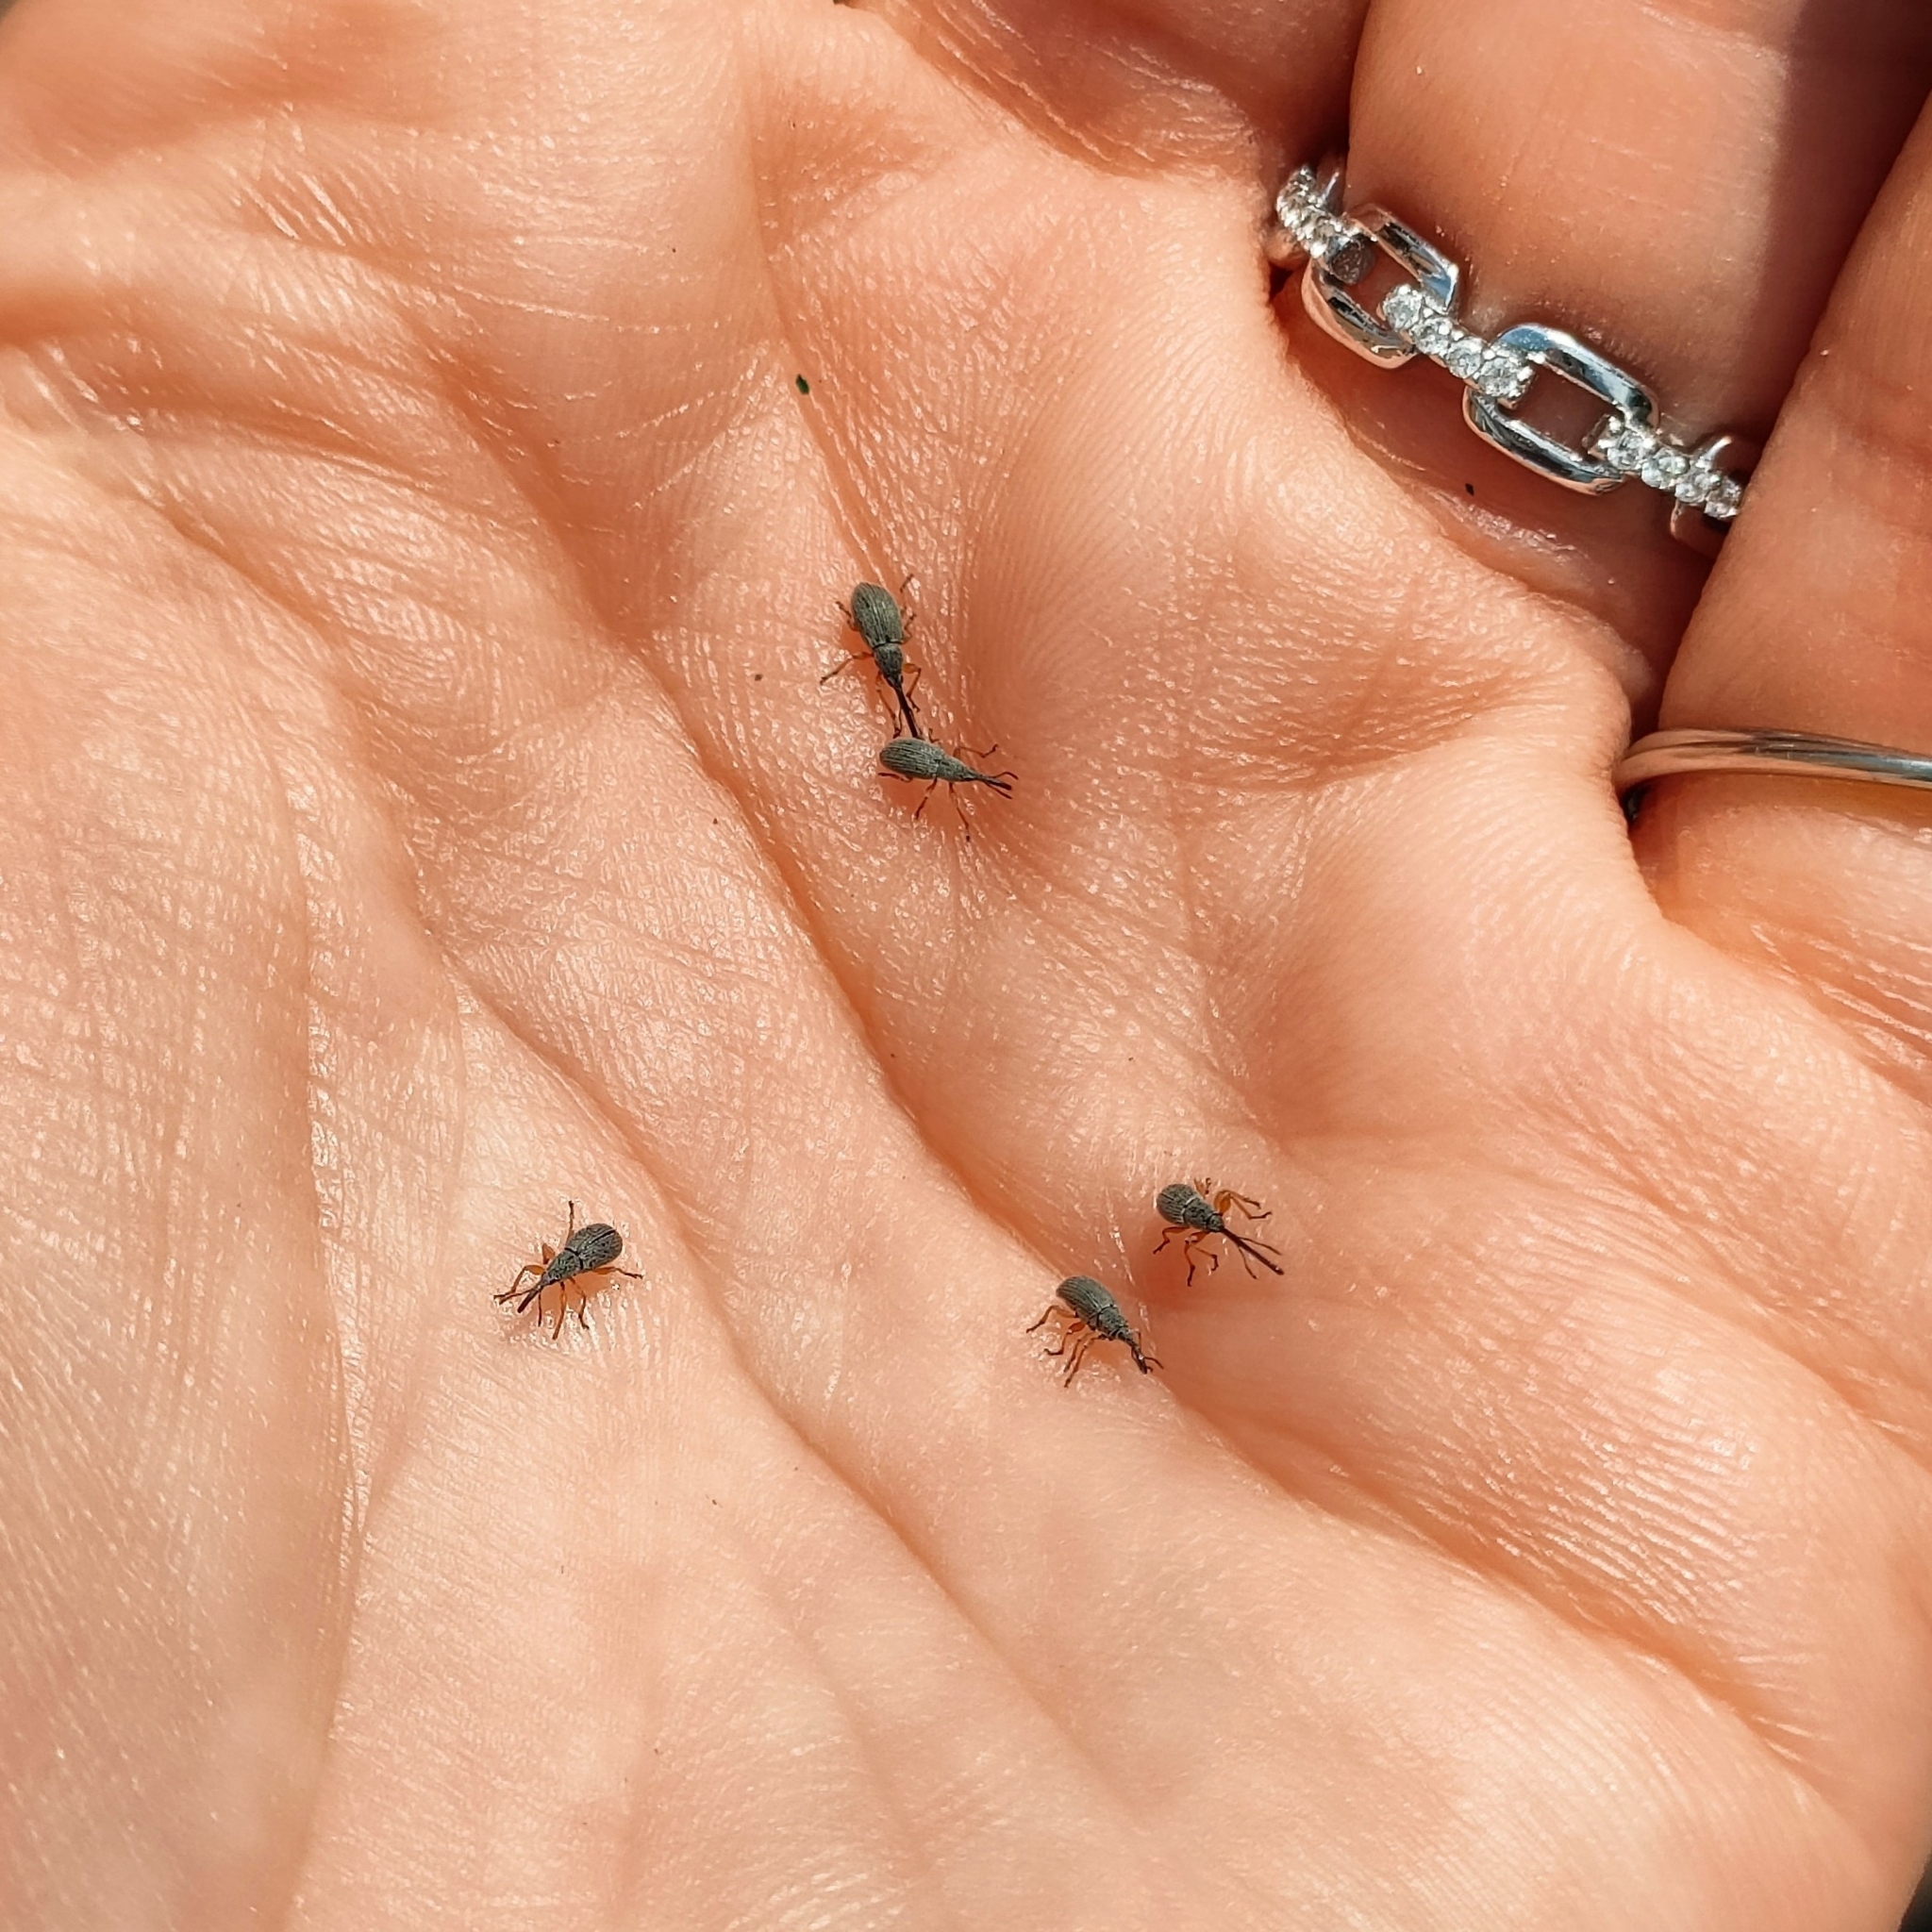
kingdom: Animalia
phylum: Arthropoda
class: Insecta
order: Coleoptera
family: Brentidae
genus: Rhopalapion
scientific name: Rhopalapion longirostre
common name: Hollyhock weevil
